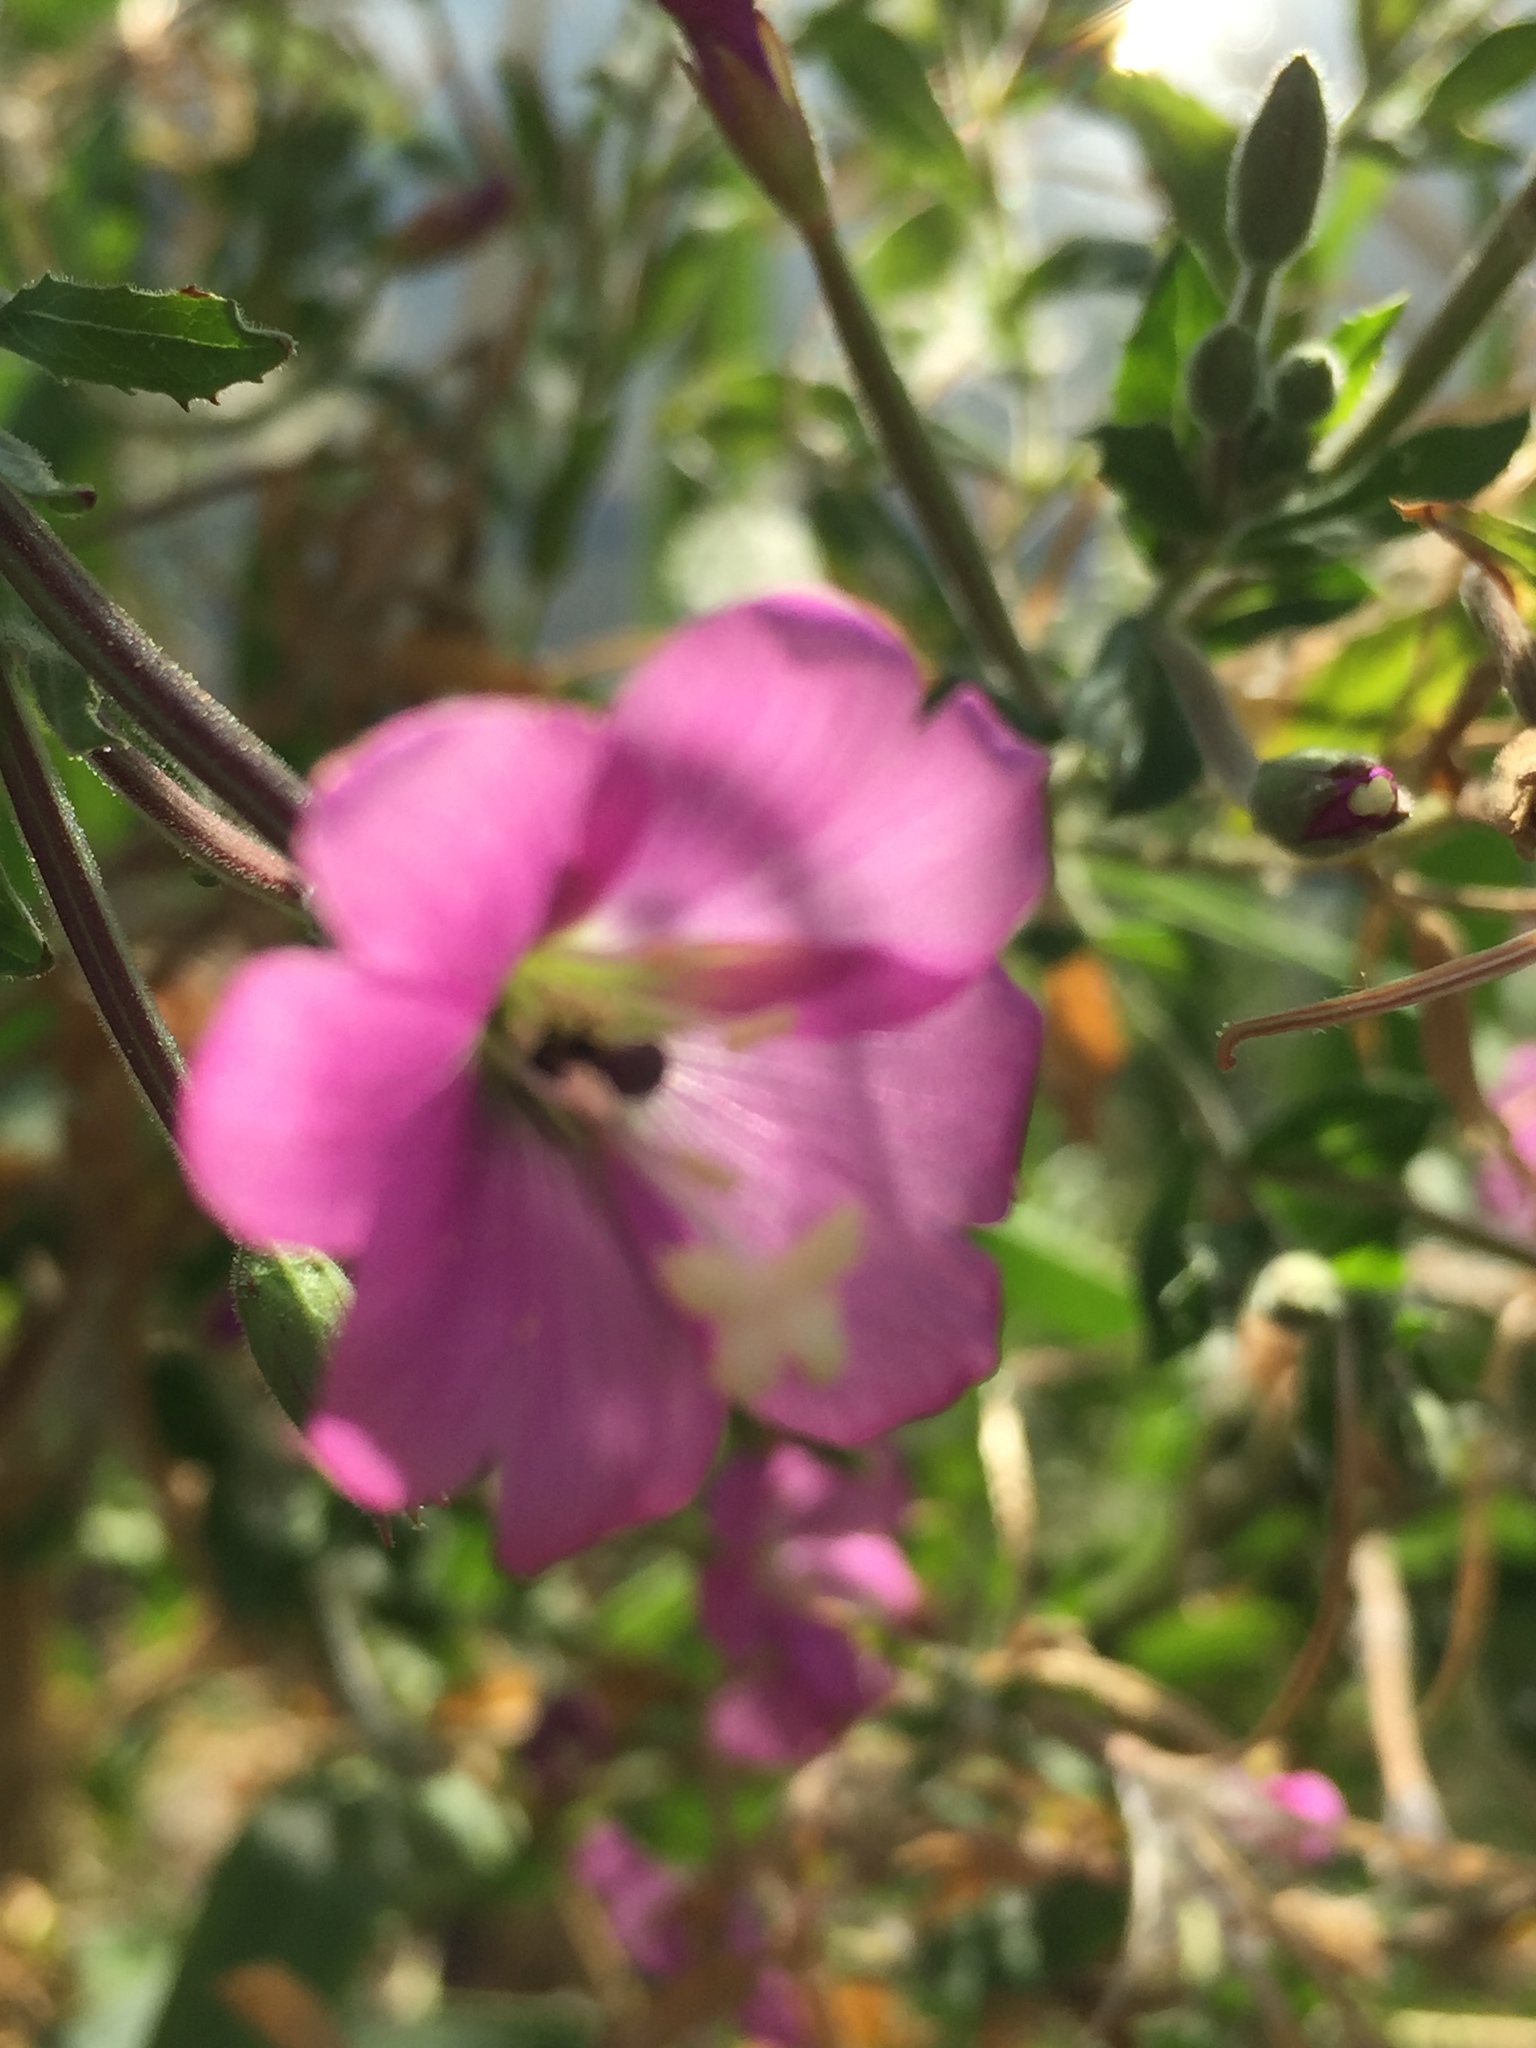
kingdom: Plantae
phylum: Tracheophyta
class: Magnoliopsida
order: Myrtales
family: Onagraceae
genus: Epilobium
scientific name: Epilobium hirsutum
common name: Great willowherb
